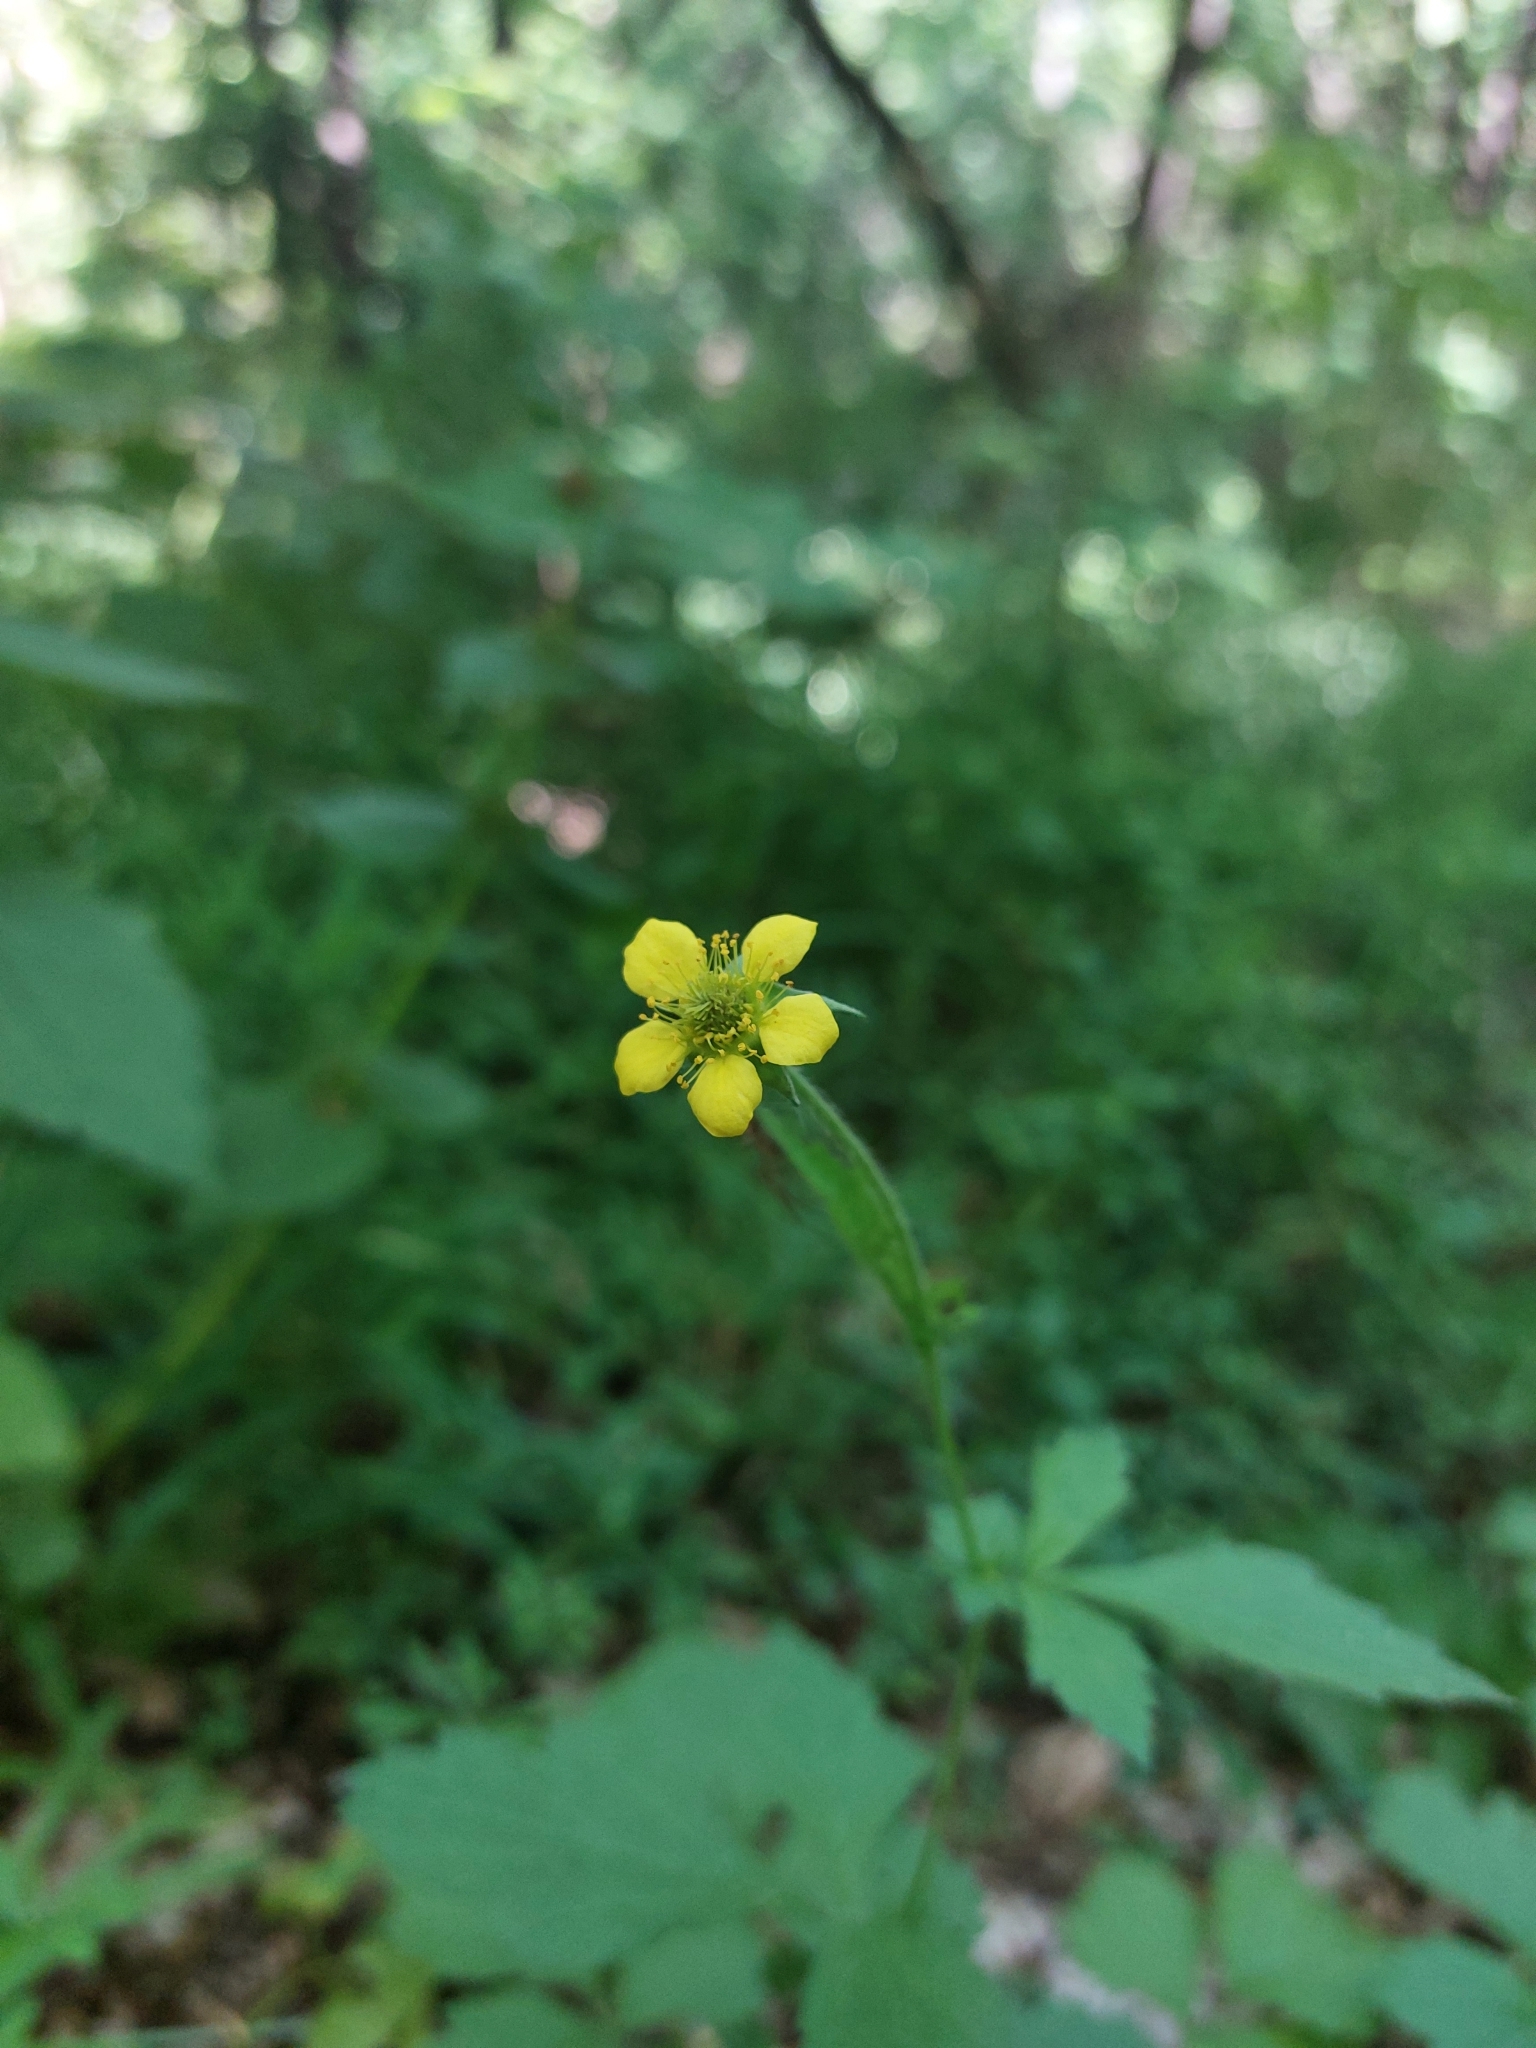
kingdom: Plantae
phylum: Tracheophyta
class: Magnoliopsida
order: Rosales
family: Rosaceae
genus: Geum
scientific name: Geum urbanum
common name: Wood avens
